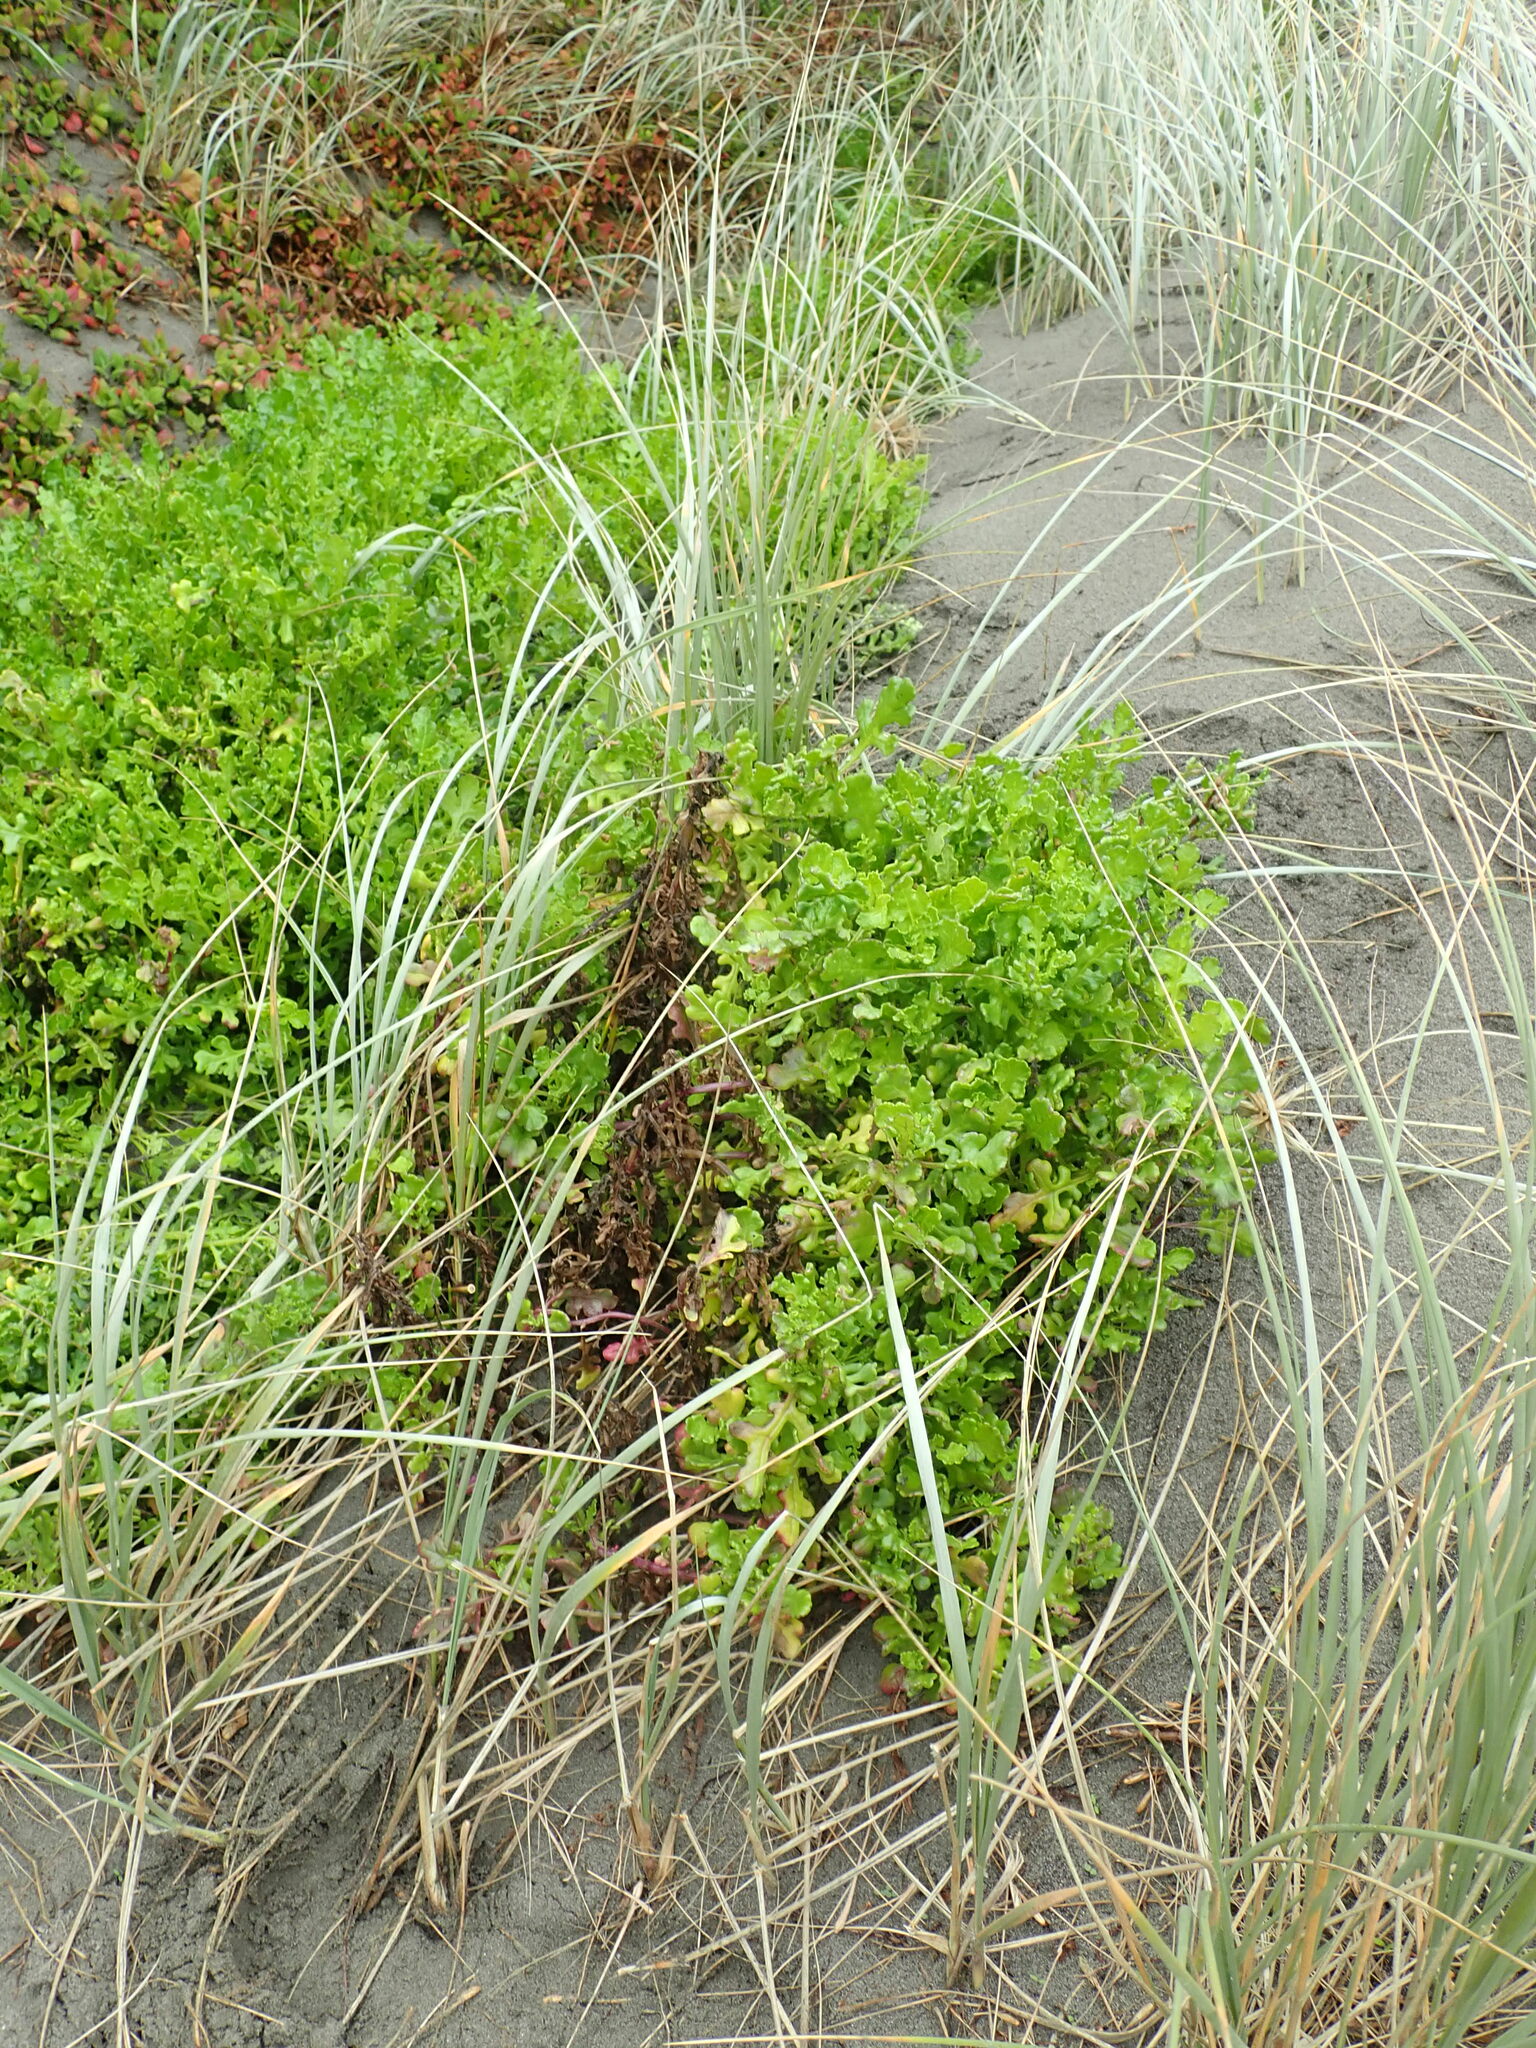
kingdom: Plantae
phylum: Tracheophyta
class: Magnoliopsida
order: Asterales
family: Asteraceae
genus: Senecio
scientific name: Senecio elegans
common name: Purple groundsel
